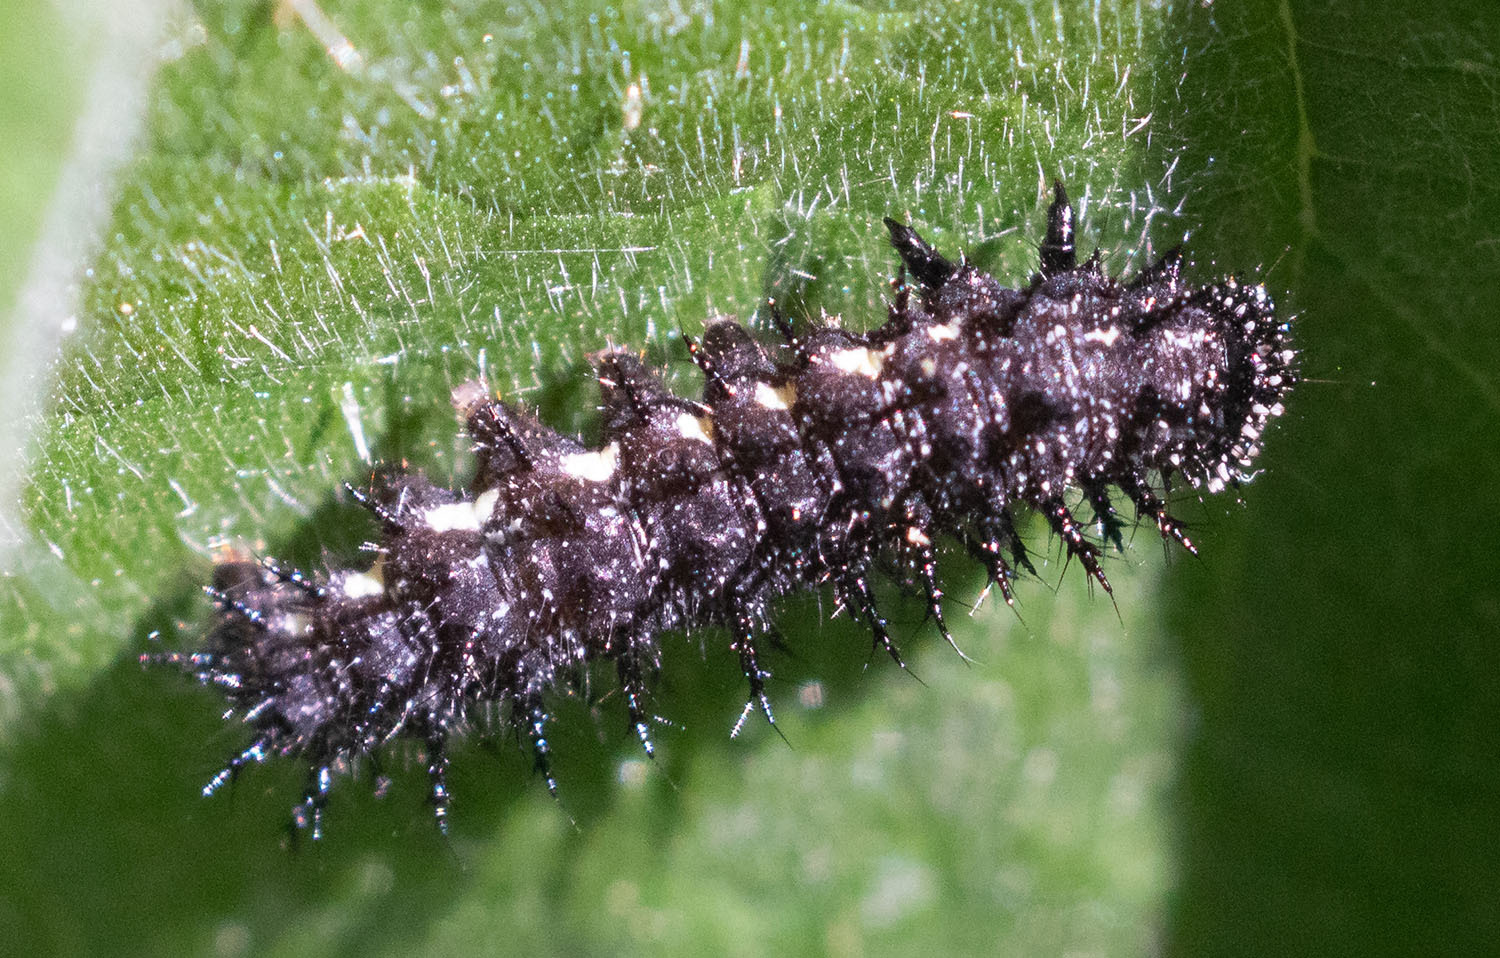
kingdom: Animalia
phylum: Arthropoda
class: Insecta
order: Lepidoptera
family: Nymphalidae
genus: Vanessa
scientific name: Vanessa atalanta
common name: Red admiral
